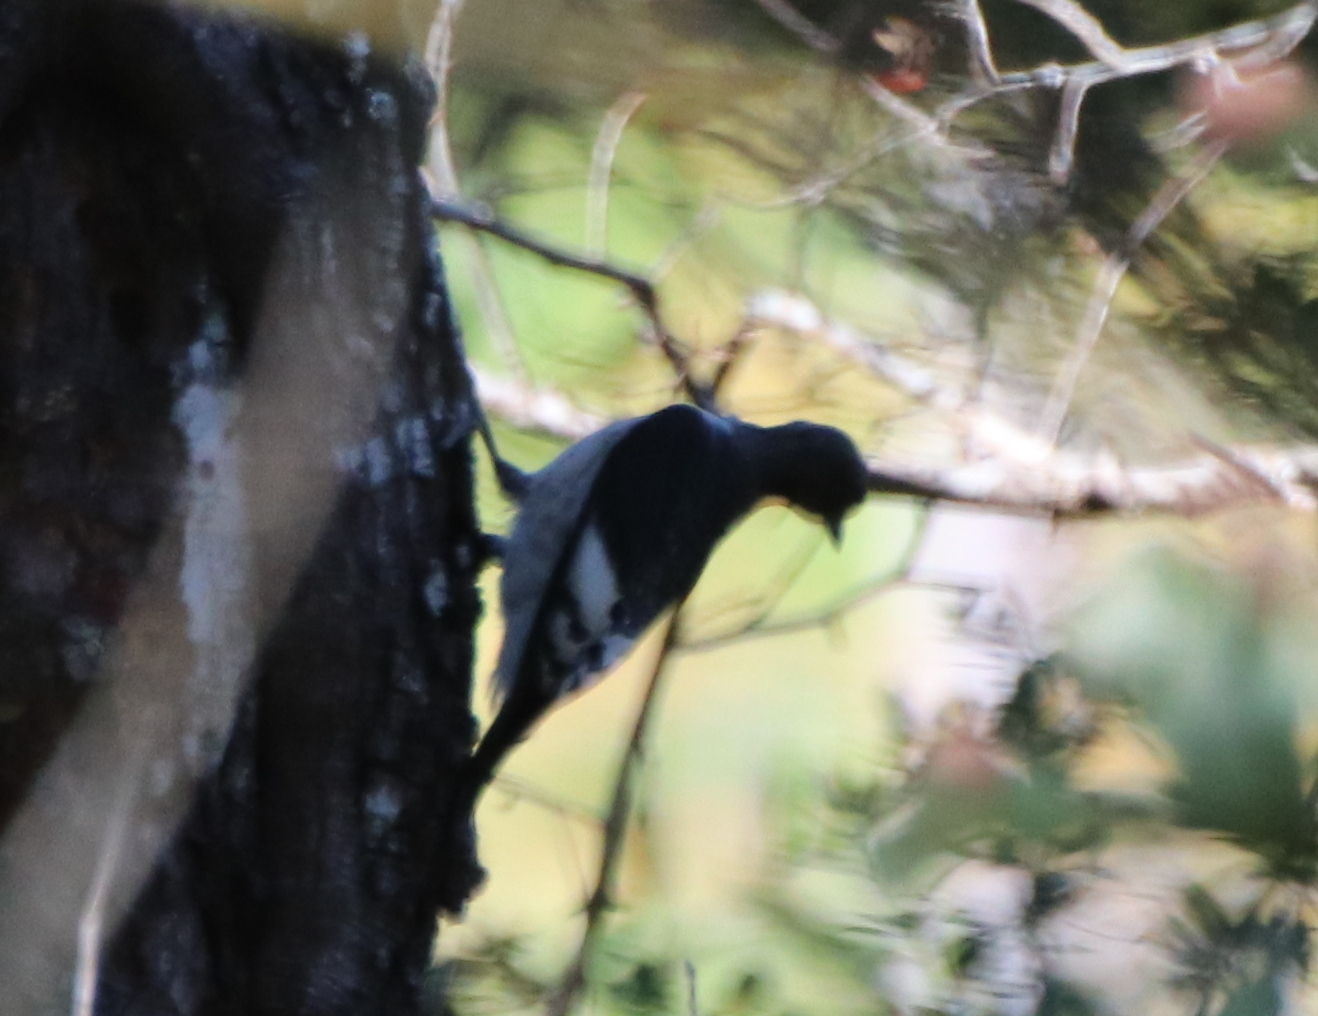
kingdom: Animalia
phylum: Chordata
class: Aves
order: Piciformes
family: Picidae
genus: Melanerpes
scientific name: Melanerpes erythrocephalus
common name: Red-headed woodpecker
